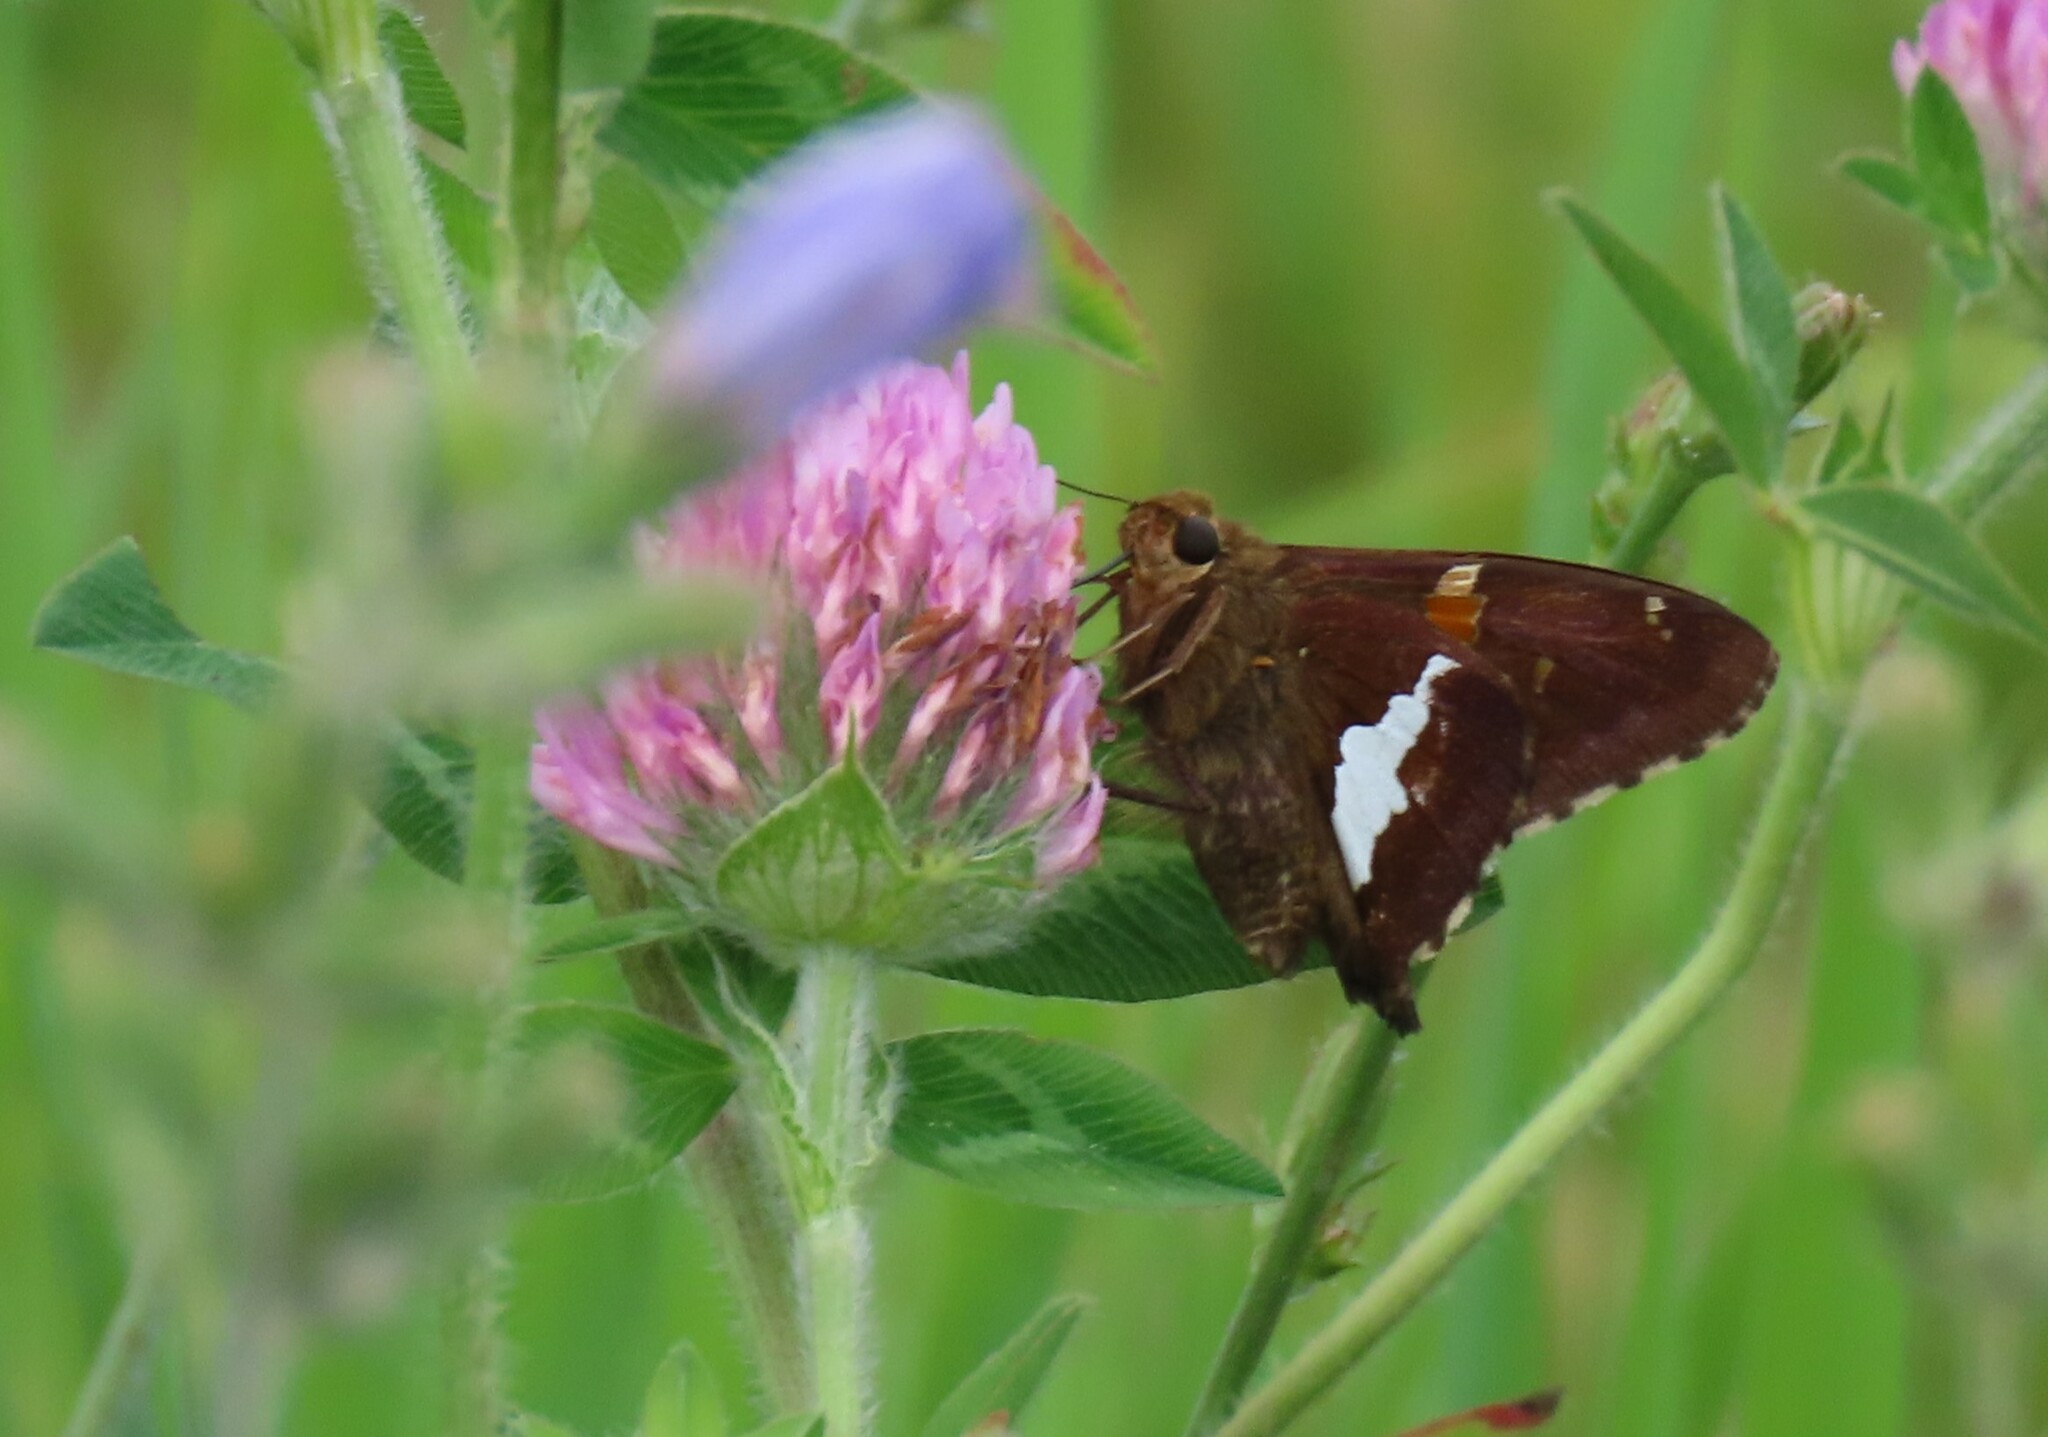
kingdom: Animalia
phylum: Arthropoda
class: Insecta
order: Lepidoptera
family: Hesperiidae
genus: Epargyreus
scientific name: Epargyreus clarus
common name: Silver-spotted skipper
